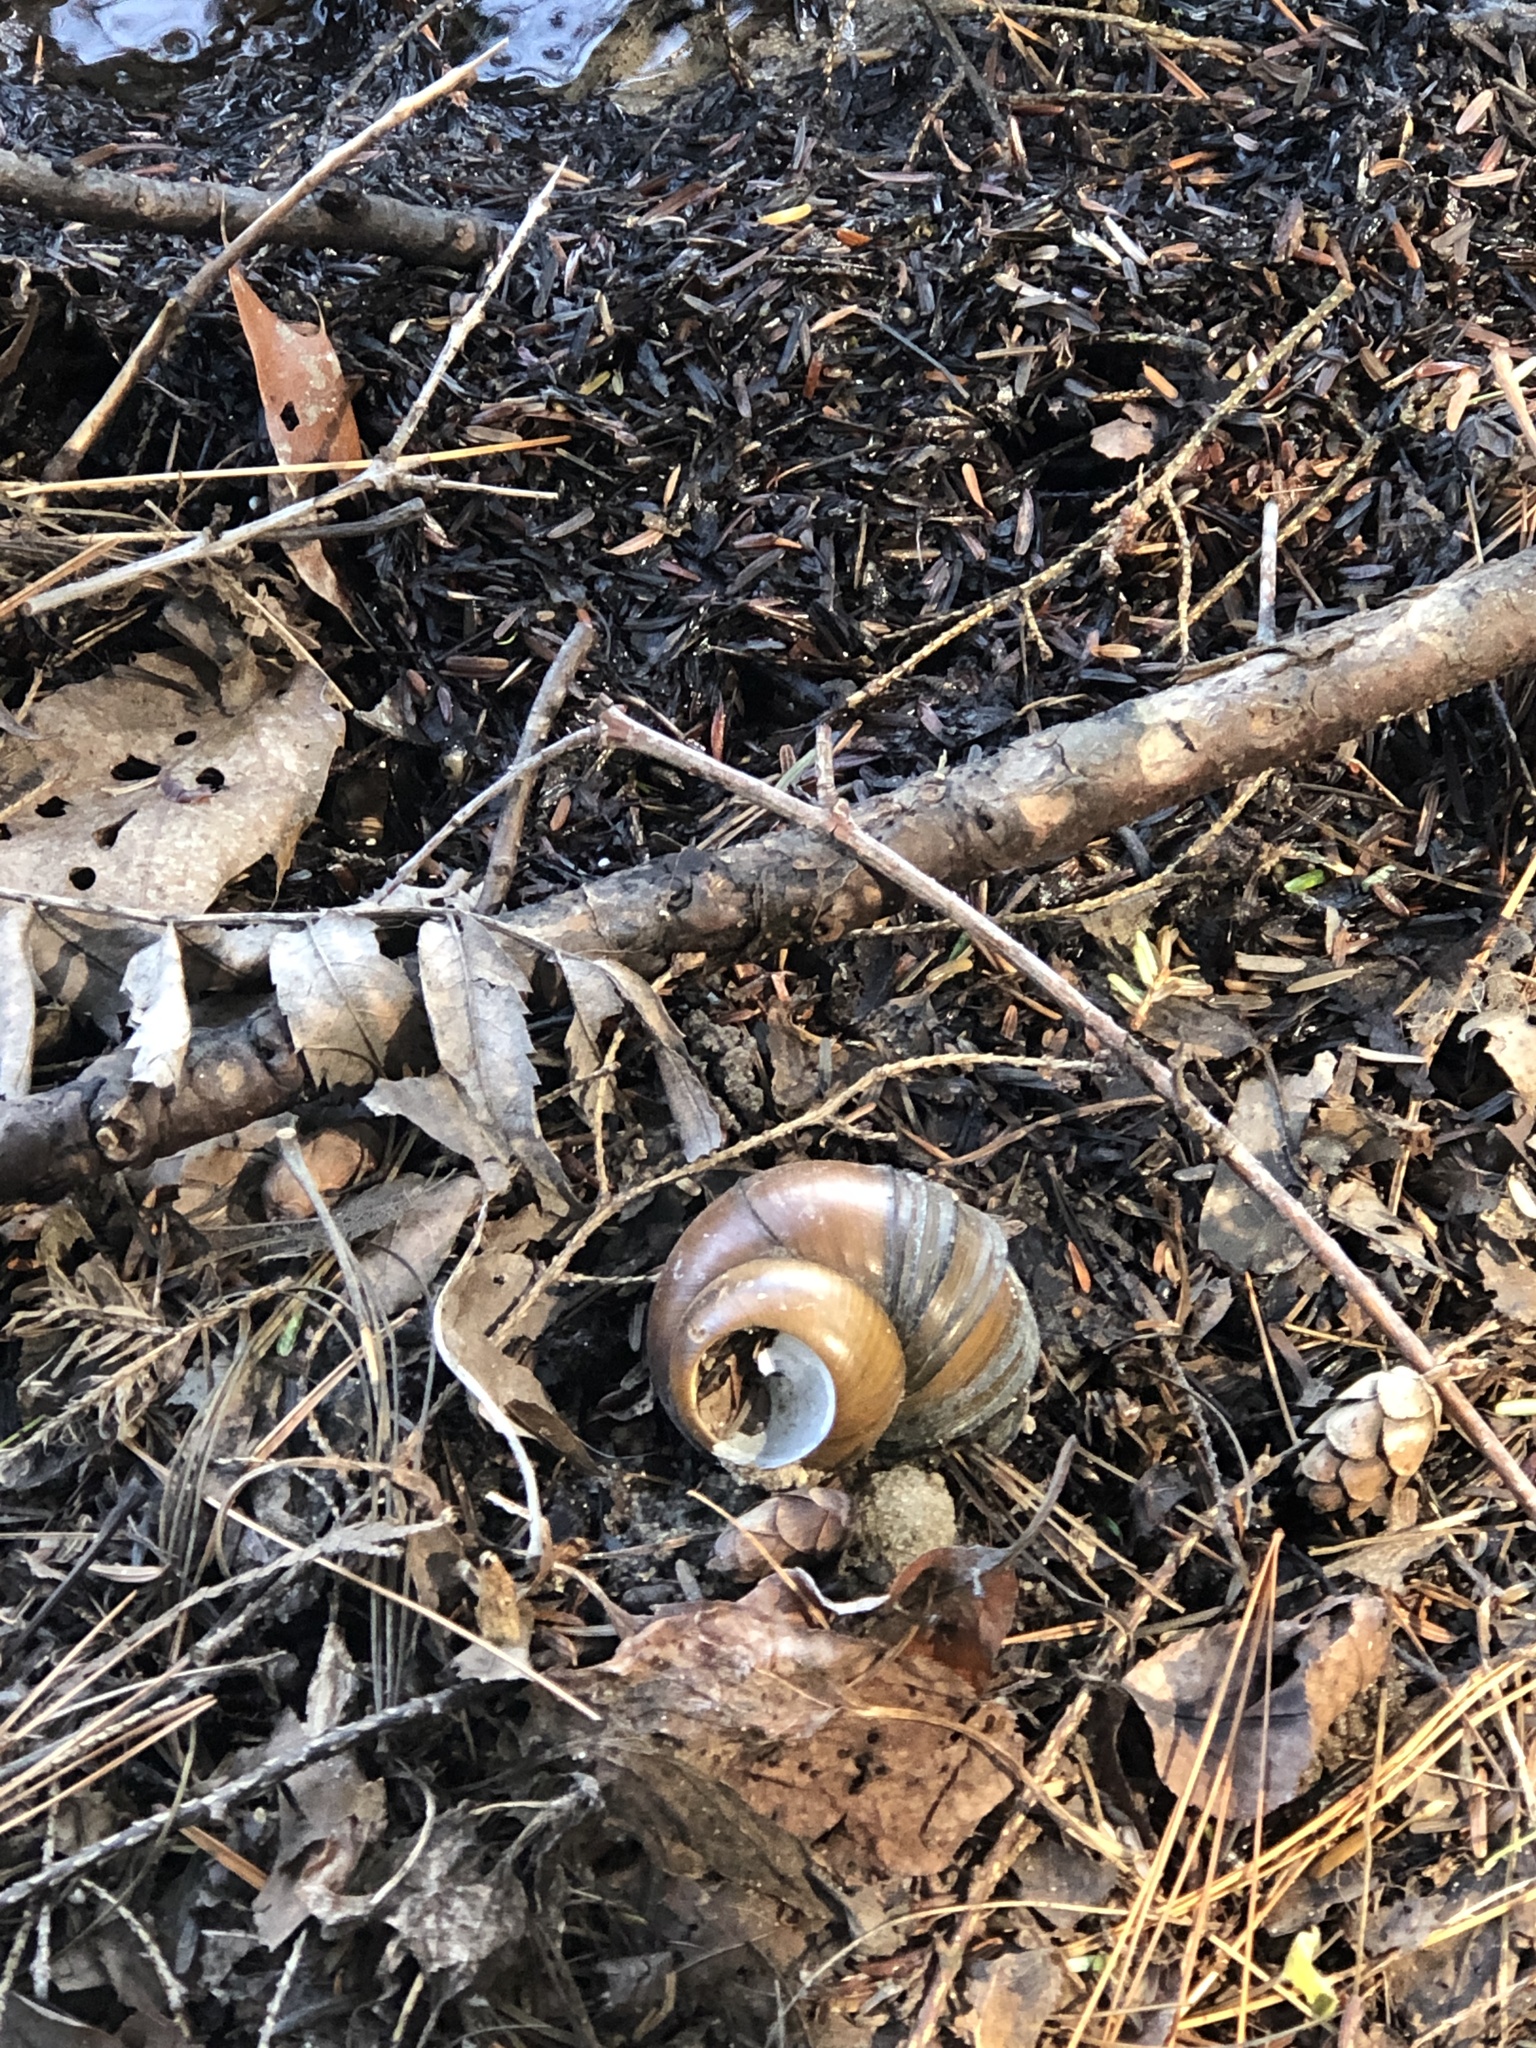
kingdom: Animalia
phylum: Mollusca
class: Gastropoda
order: Architaenioglossa
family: Viviparidae
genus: Cipangopaludina
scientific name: Cipangopaludina chinensis
